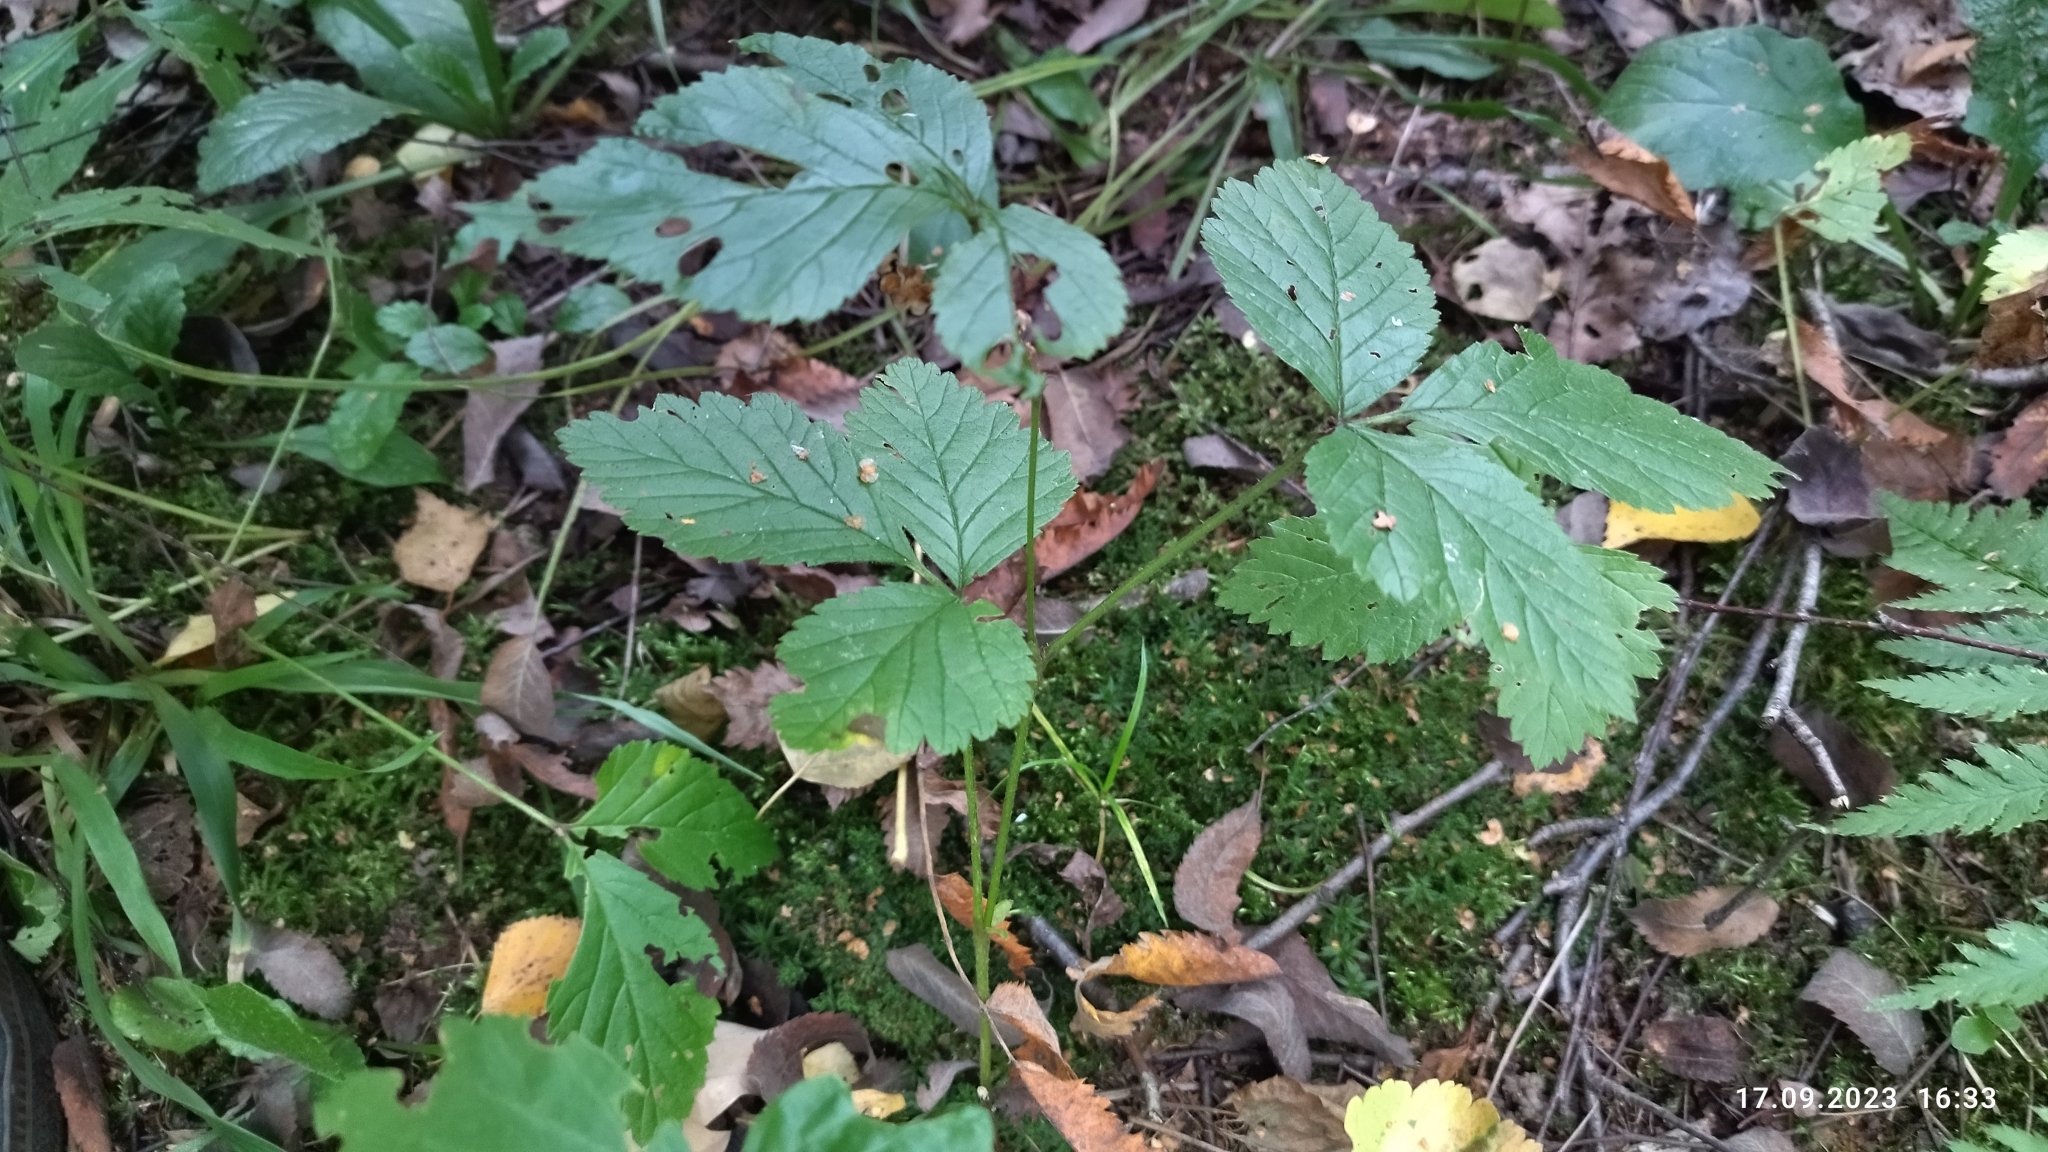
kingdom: Plantae
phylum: Tracheophyta
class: Magnoliopsida
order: Rosales
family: Rosaceae
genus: Rubus
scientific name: Rubus saxatilis
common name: Stone bramble
